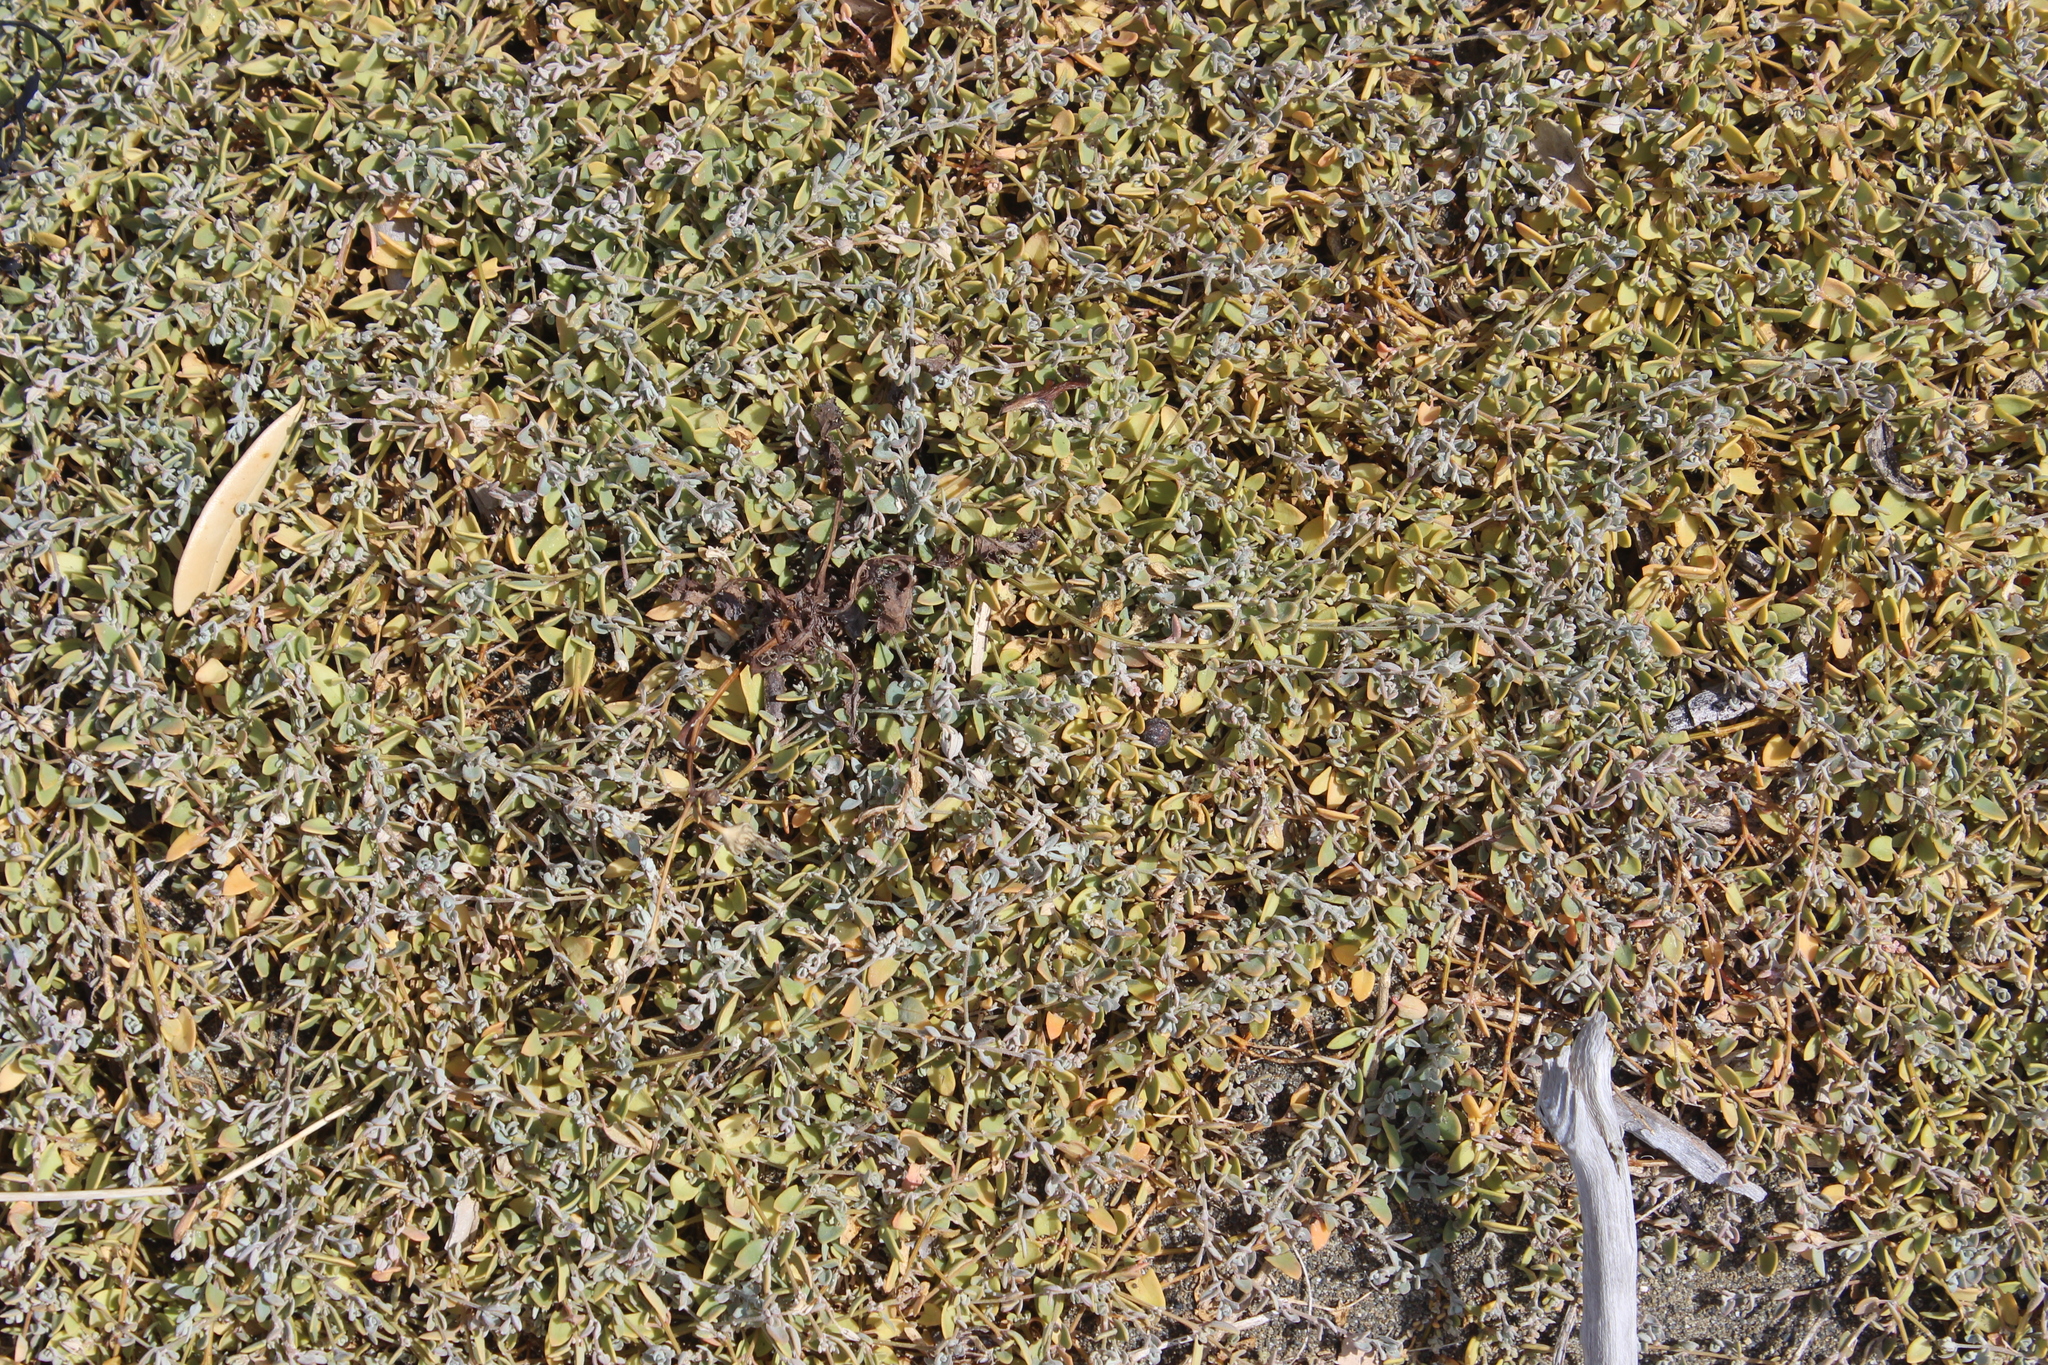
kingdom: Plantae
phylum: Tracheophyta
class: Magnoliopsida
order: Caryophyllales
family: Amaranthaceae
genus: Chenopodium
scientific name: Chenopodium triandrum
